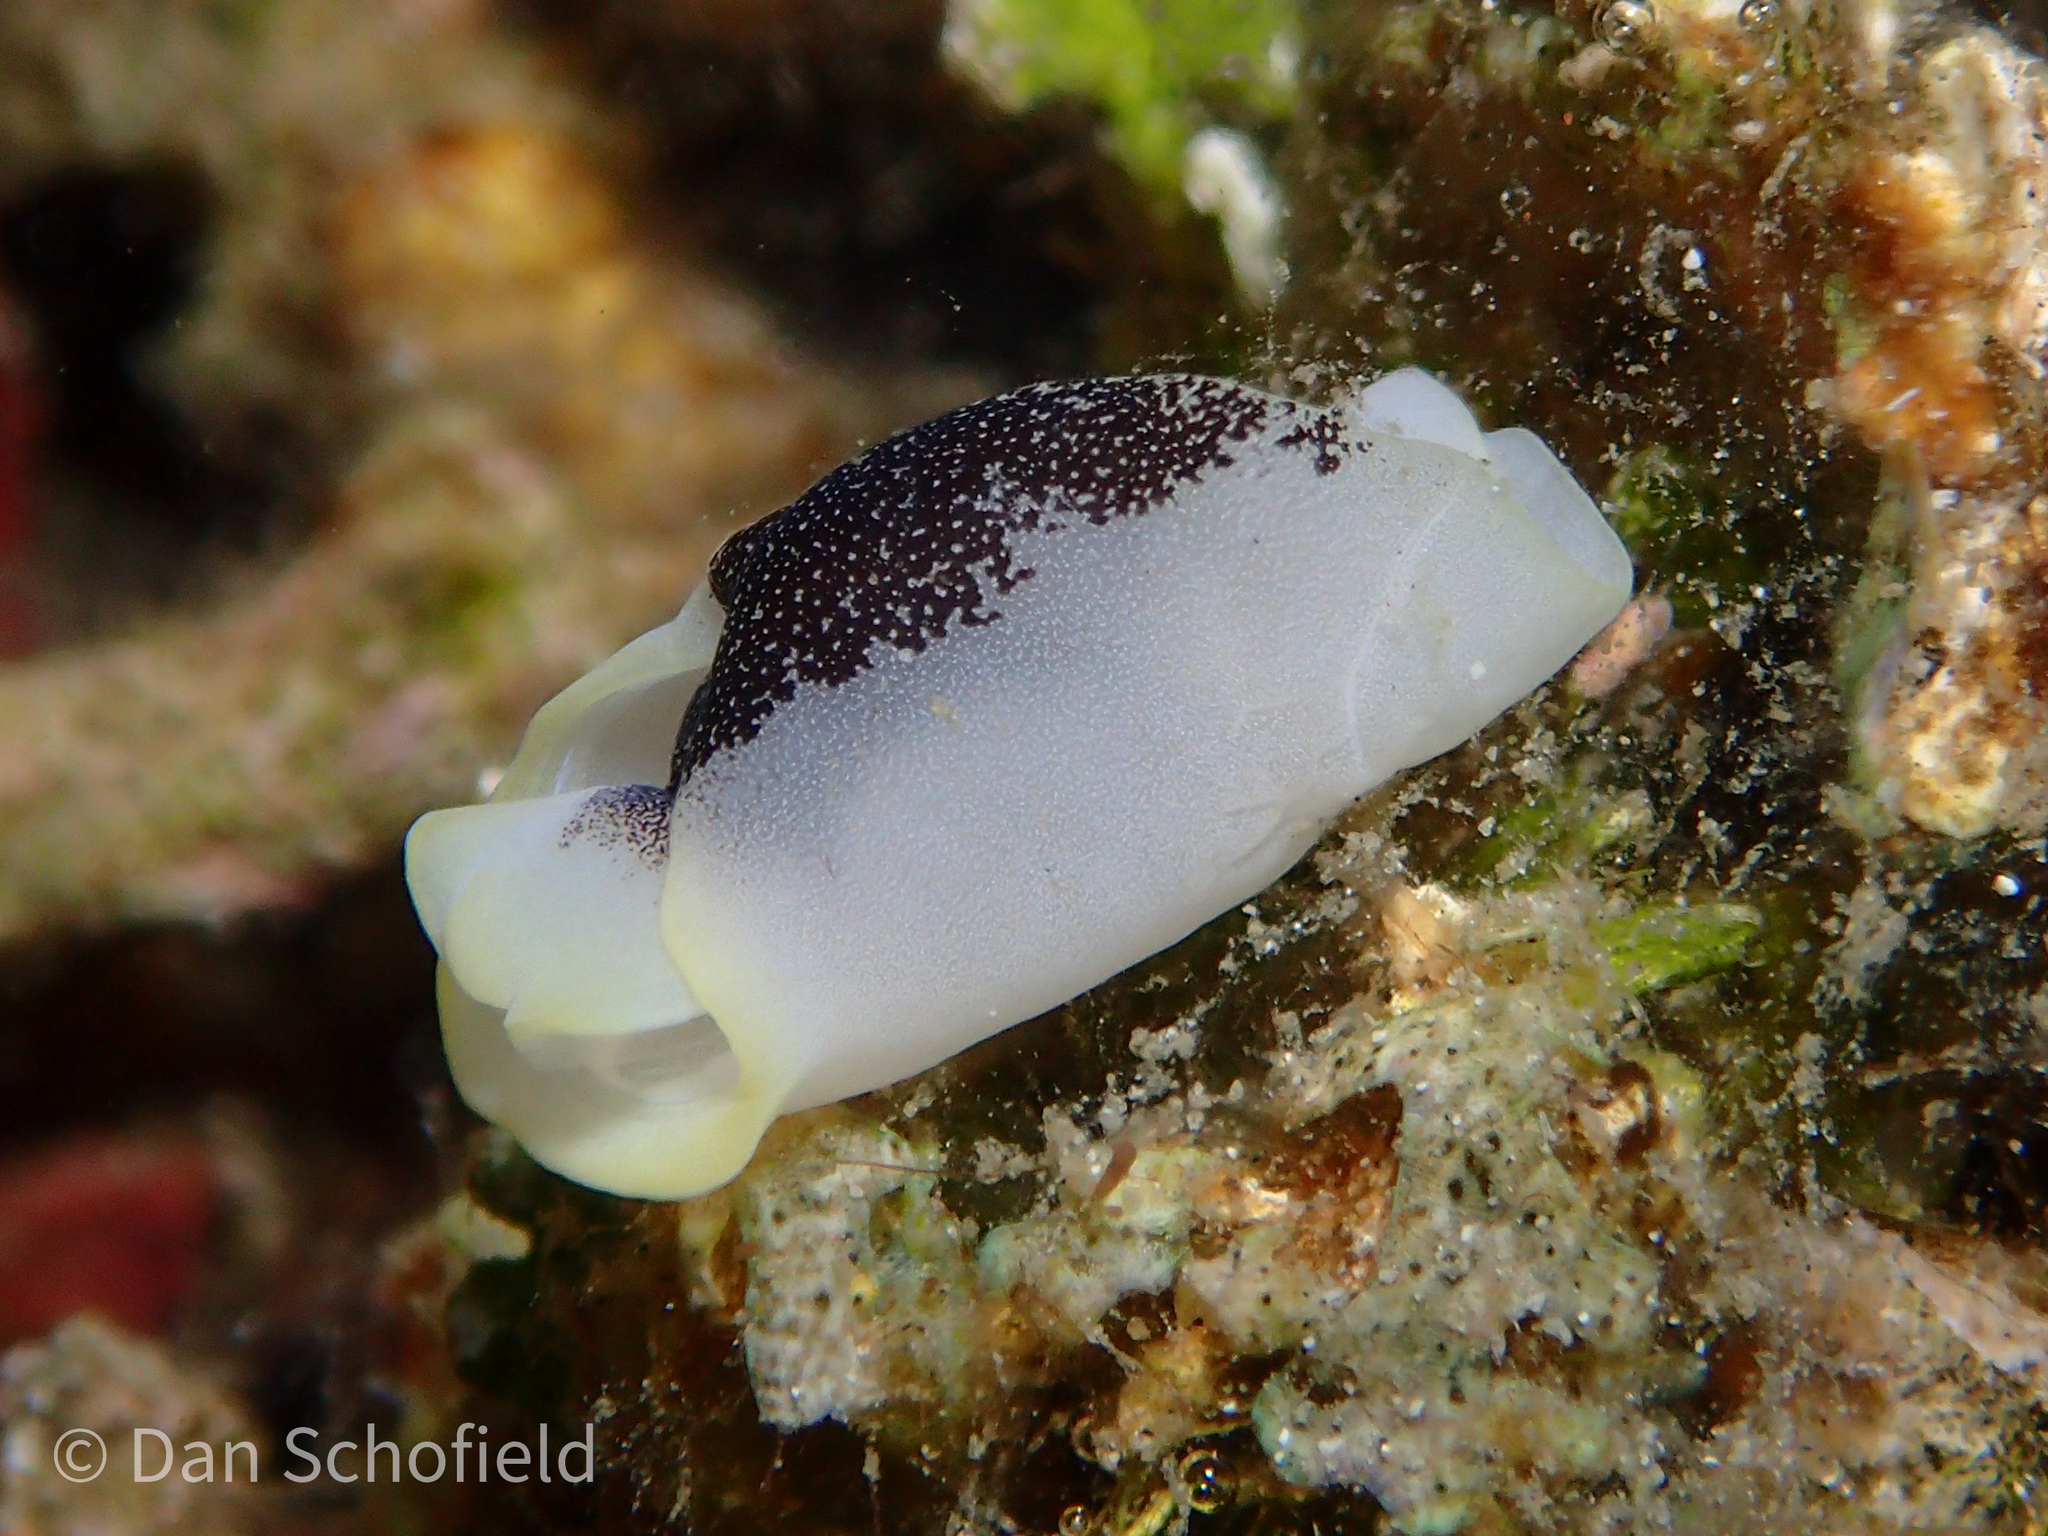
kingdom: Animalia
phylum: Mollusca
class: Gastropoda
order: Cephalaspidea
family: Aglajidae
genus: Chelidonura
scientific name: Chelidonura amoena
